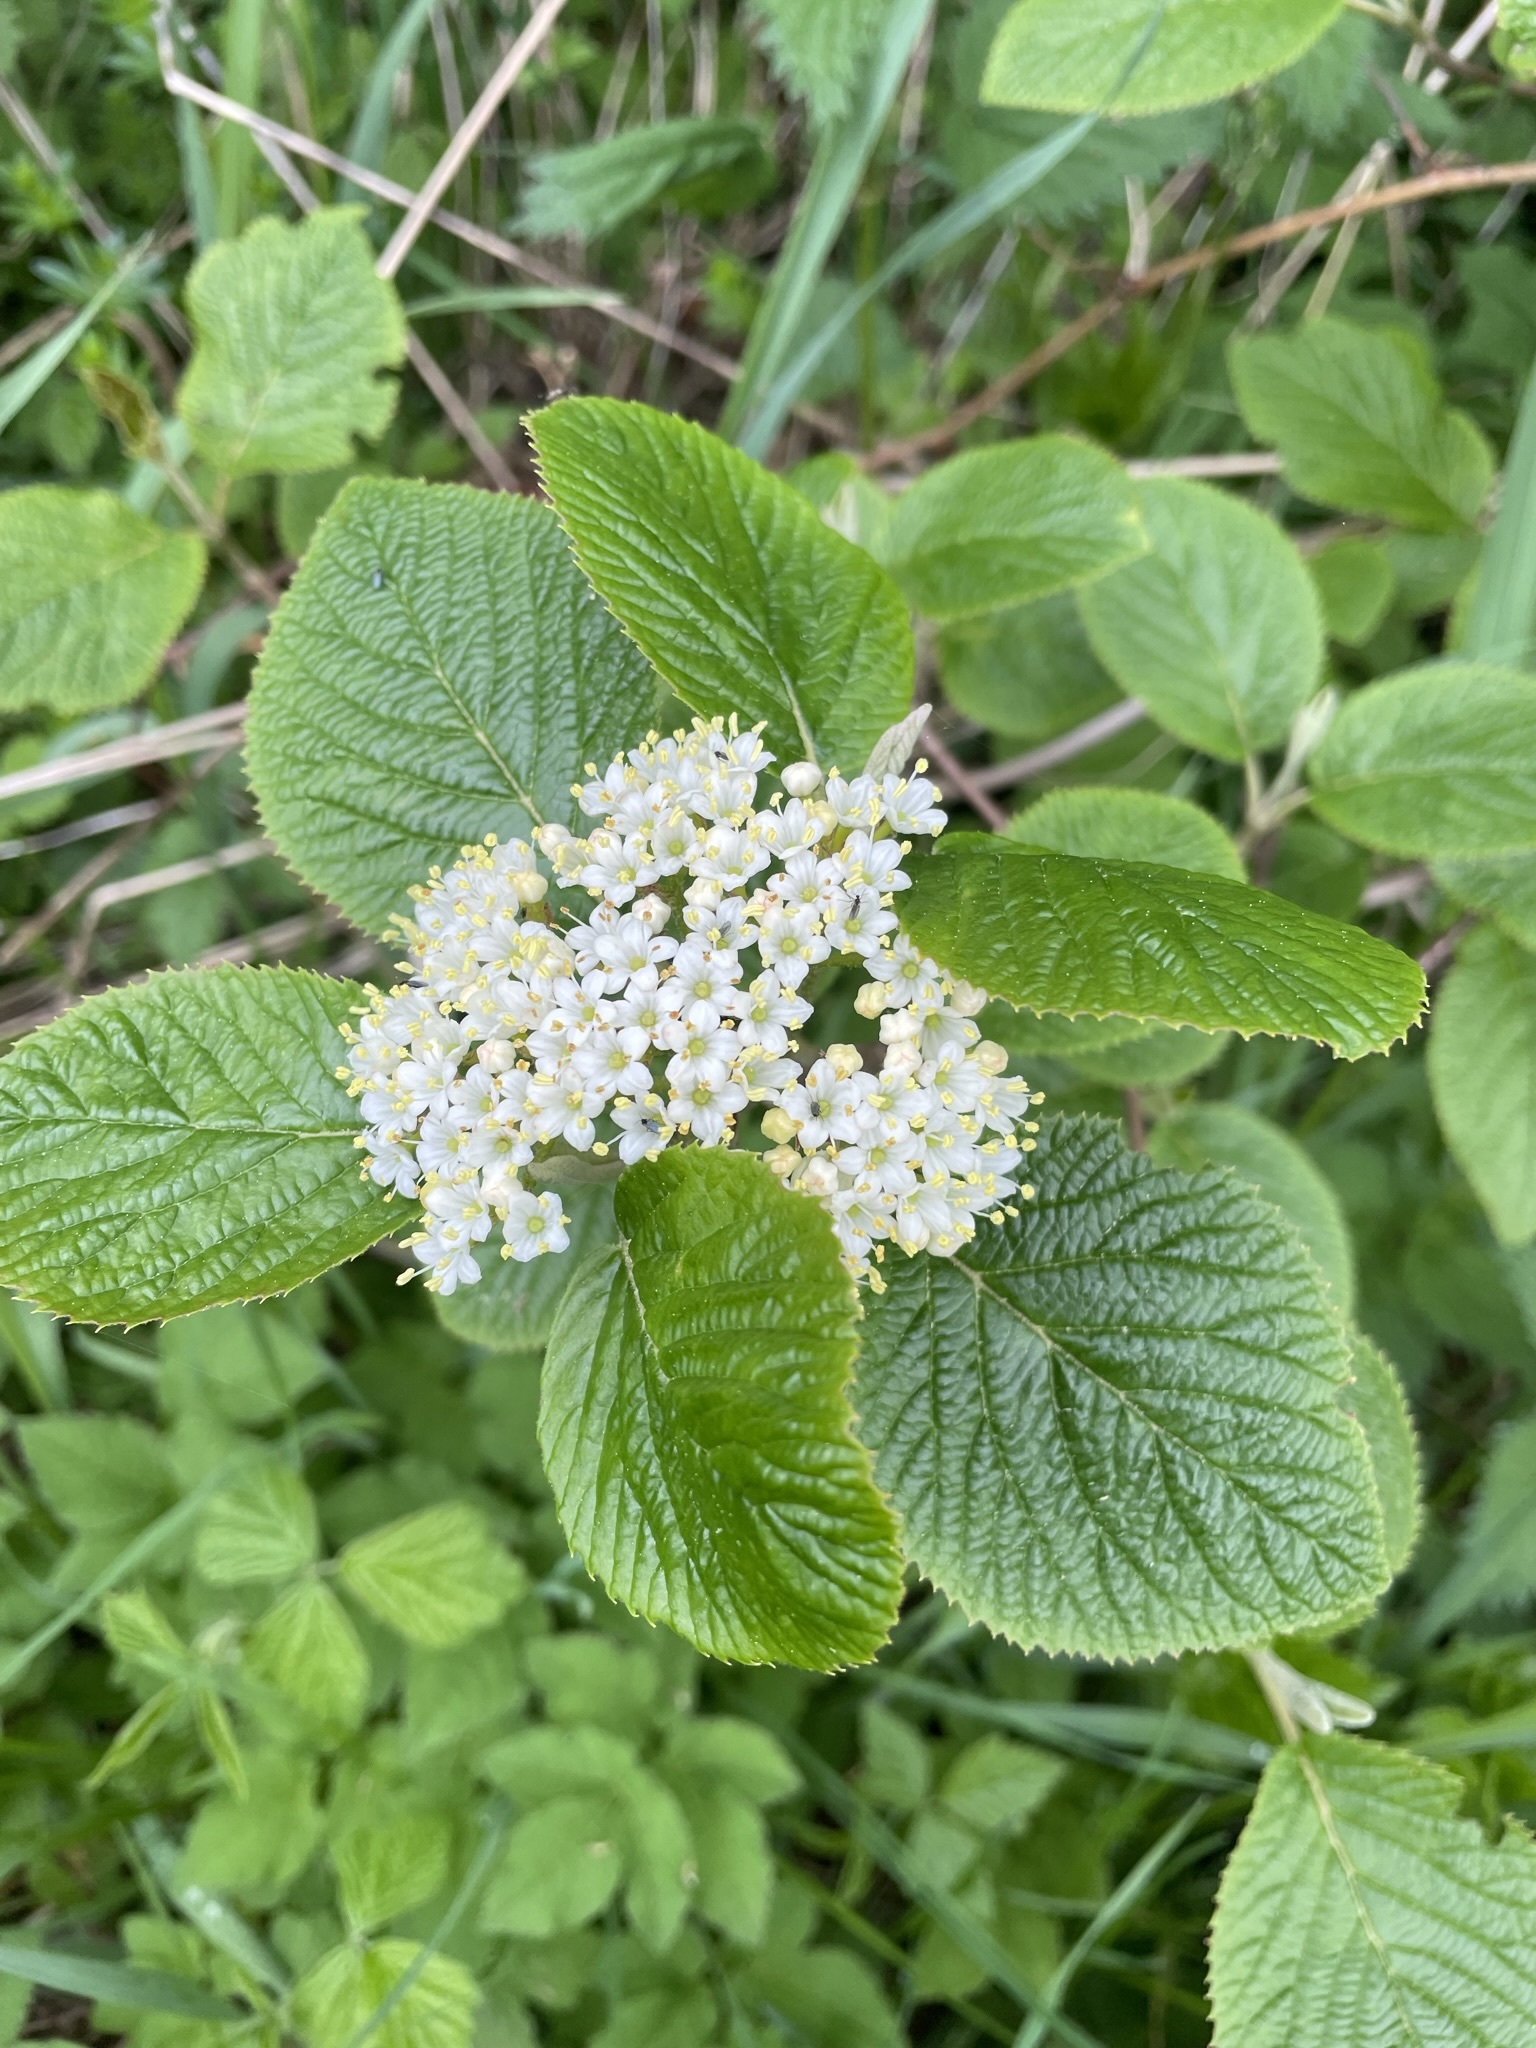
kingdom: Plantae
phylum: Tracheophyta
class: Magnoliopsida
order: Dipsacales
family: Viburnaceae
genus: Viburnum
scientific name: Viburnum lantana
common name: Wayfaring tree
